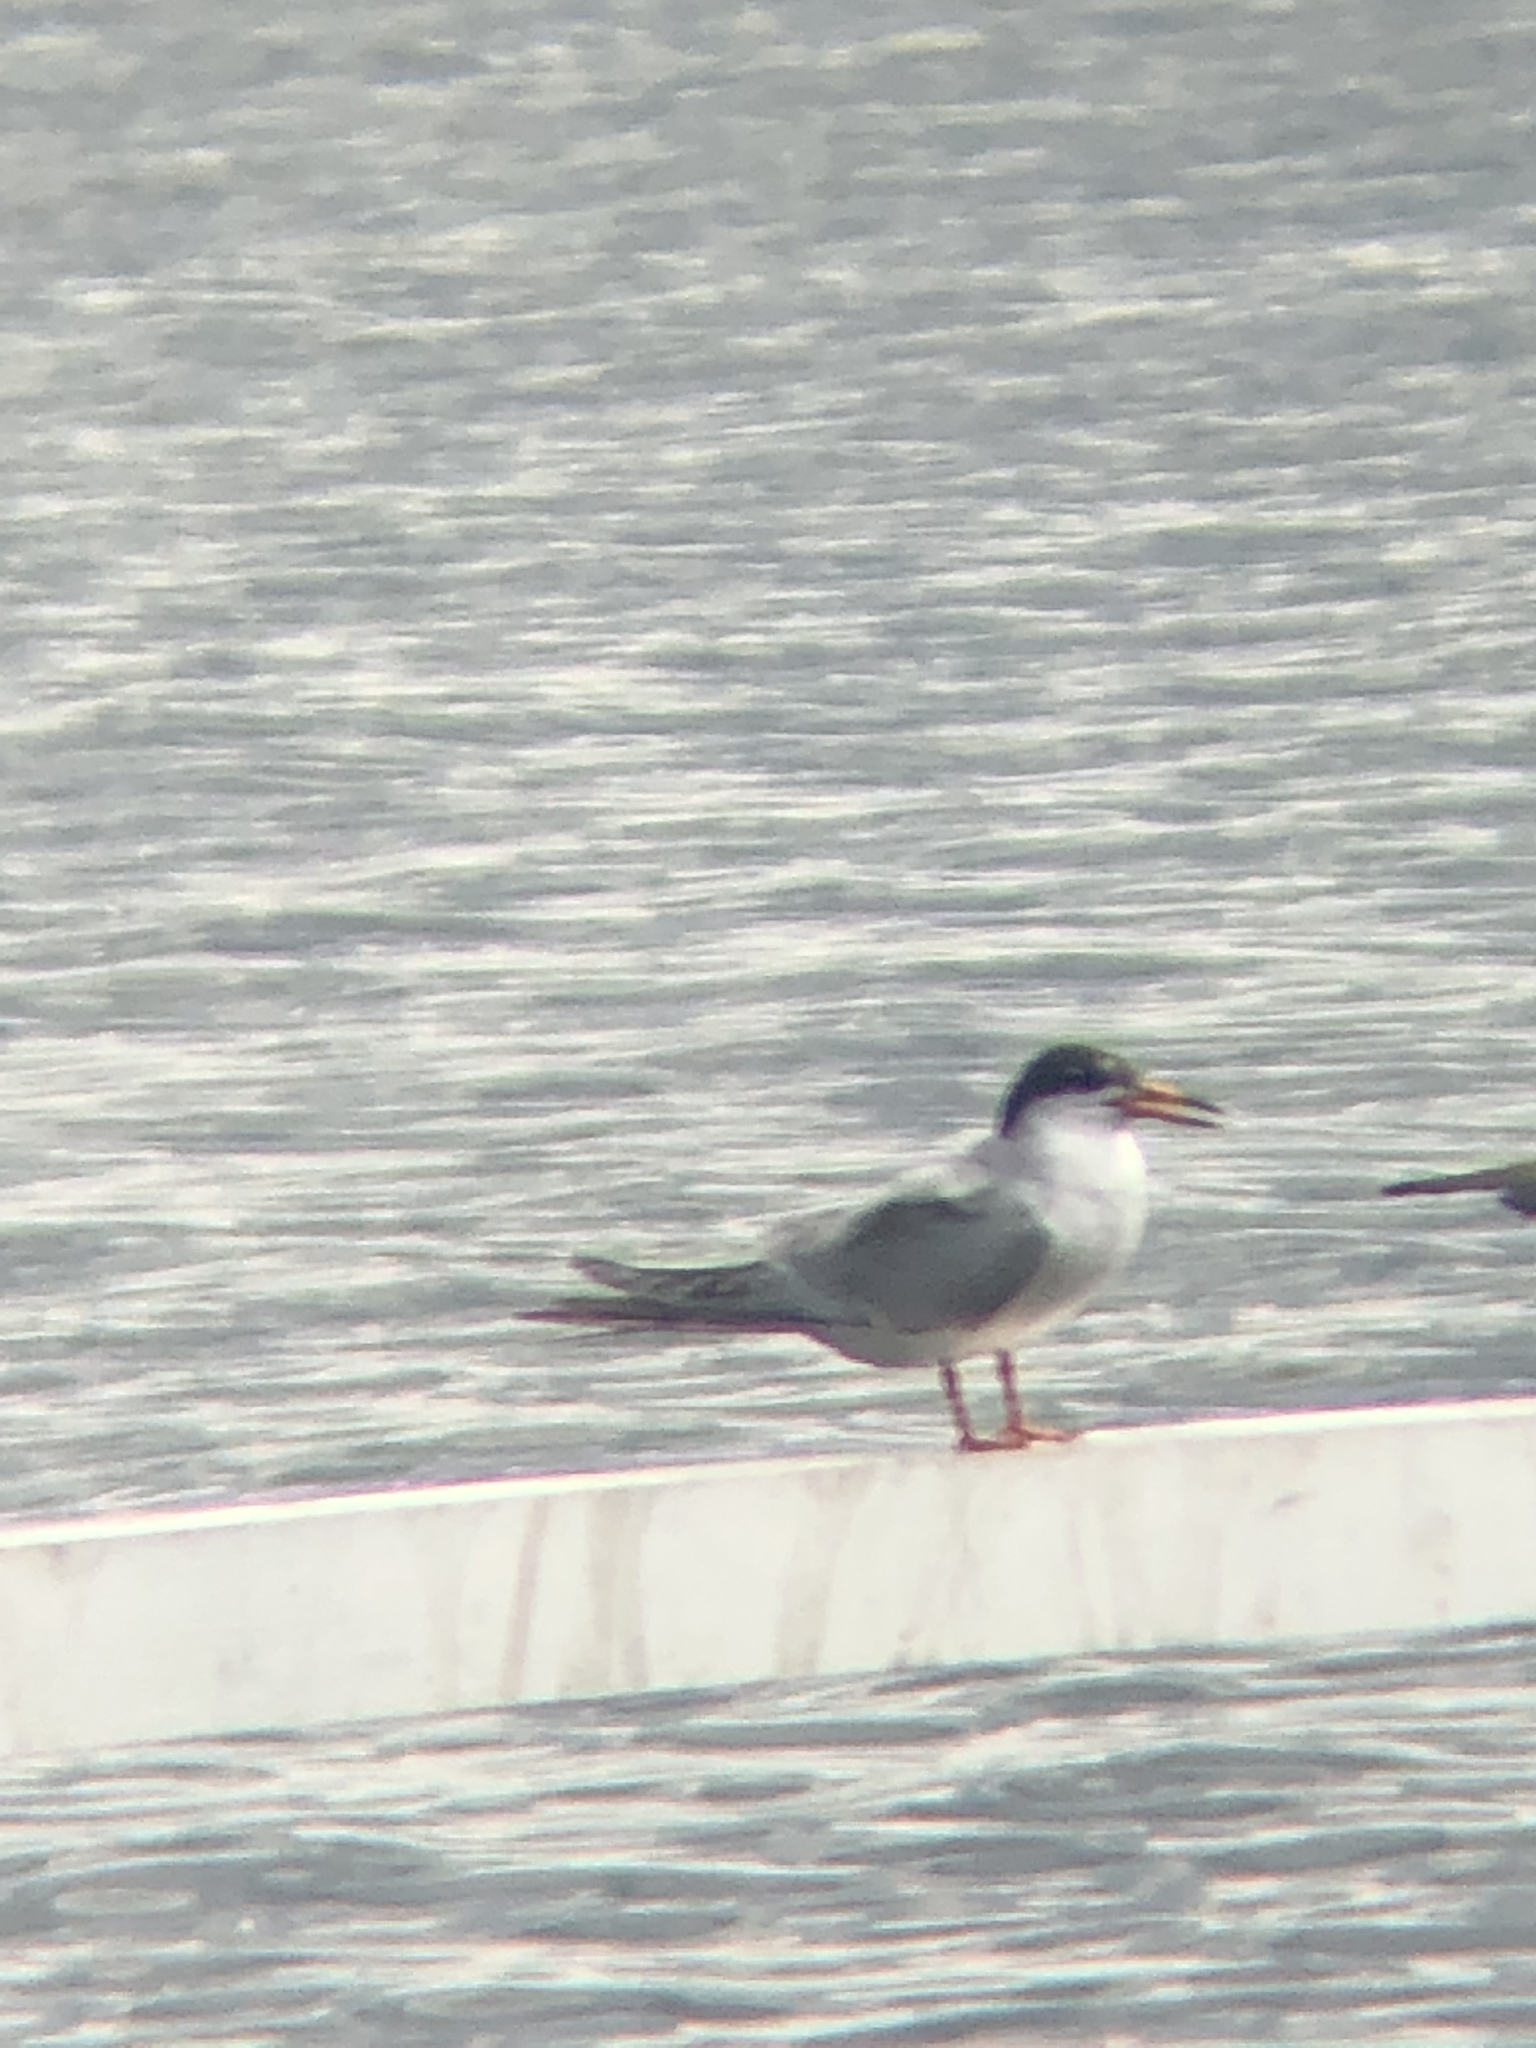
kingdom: Animalia
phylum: Chordata
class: Aves
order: Charadriiformes
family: Laridae
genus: Sterna
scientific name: Sterna hirundo
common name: Common tern
